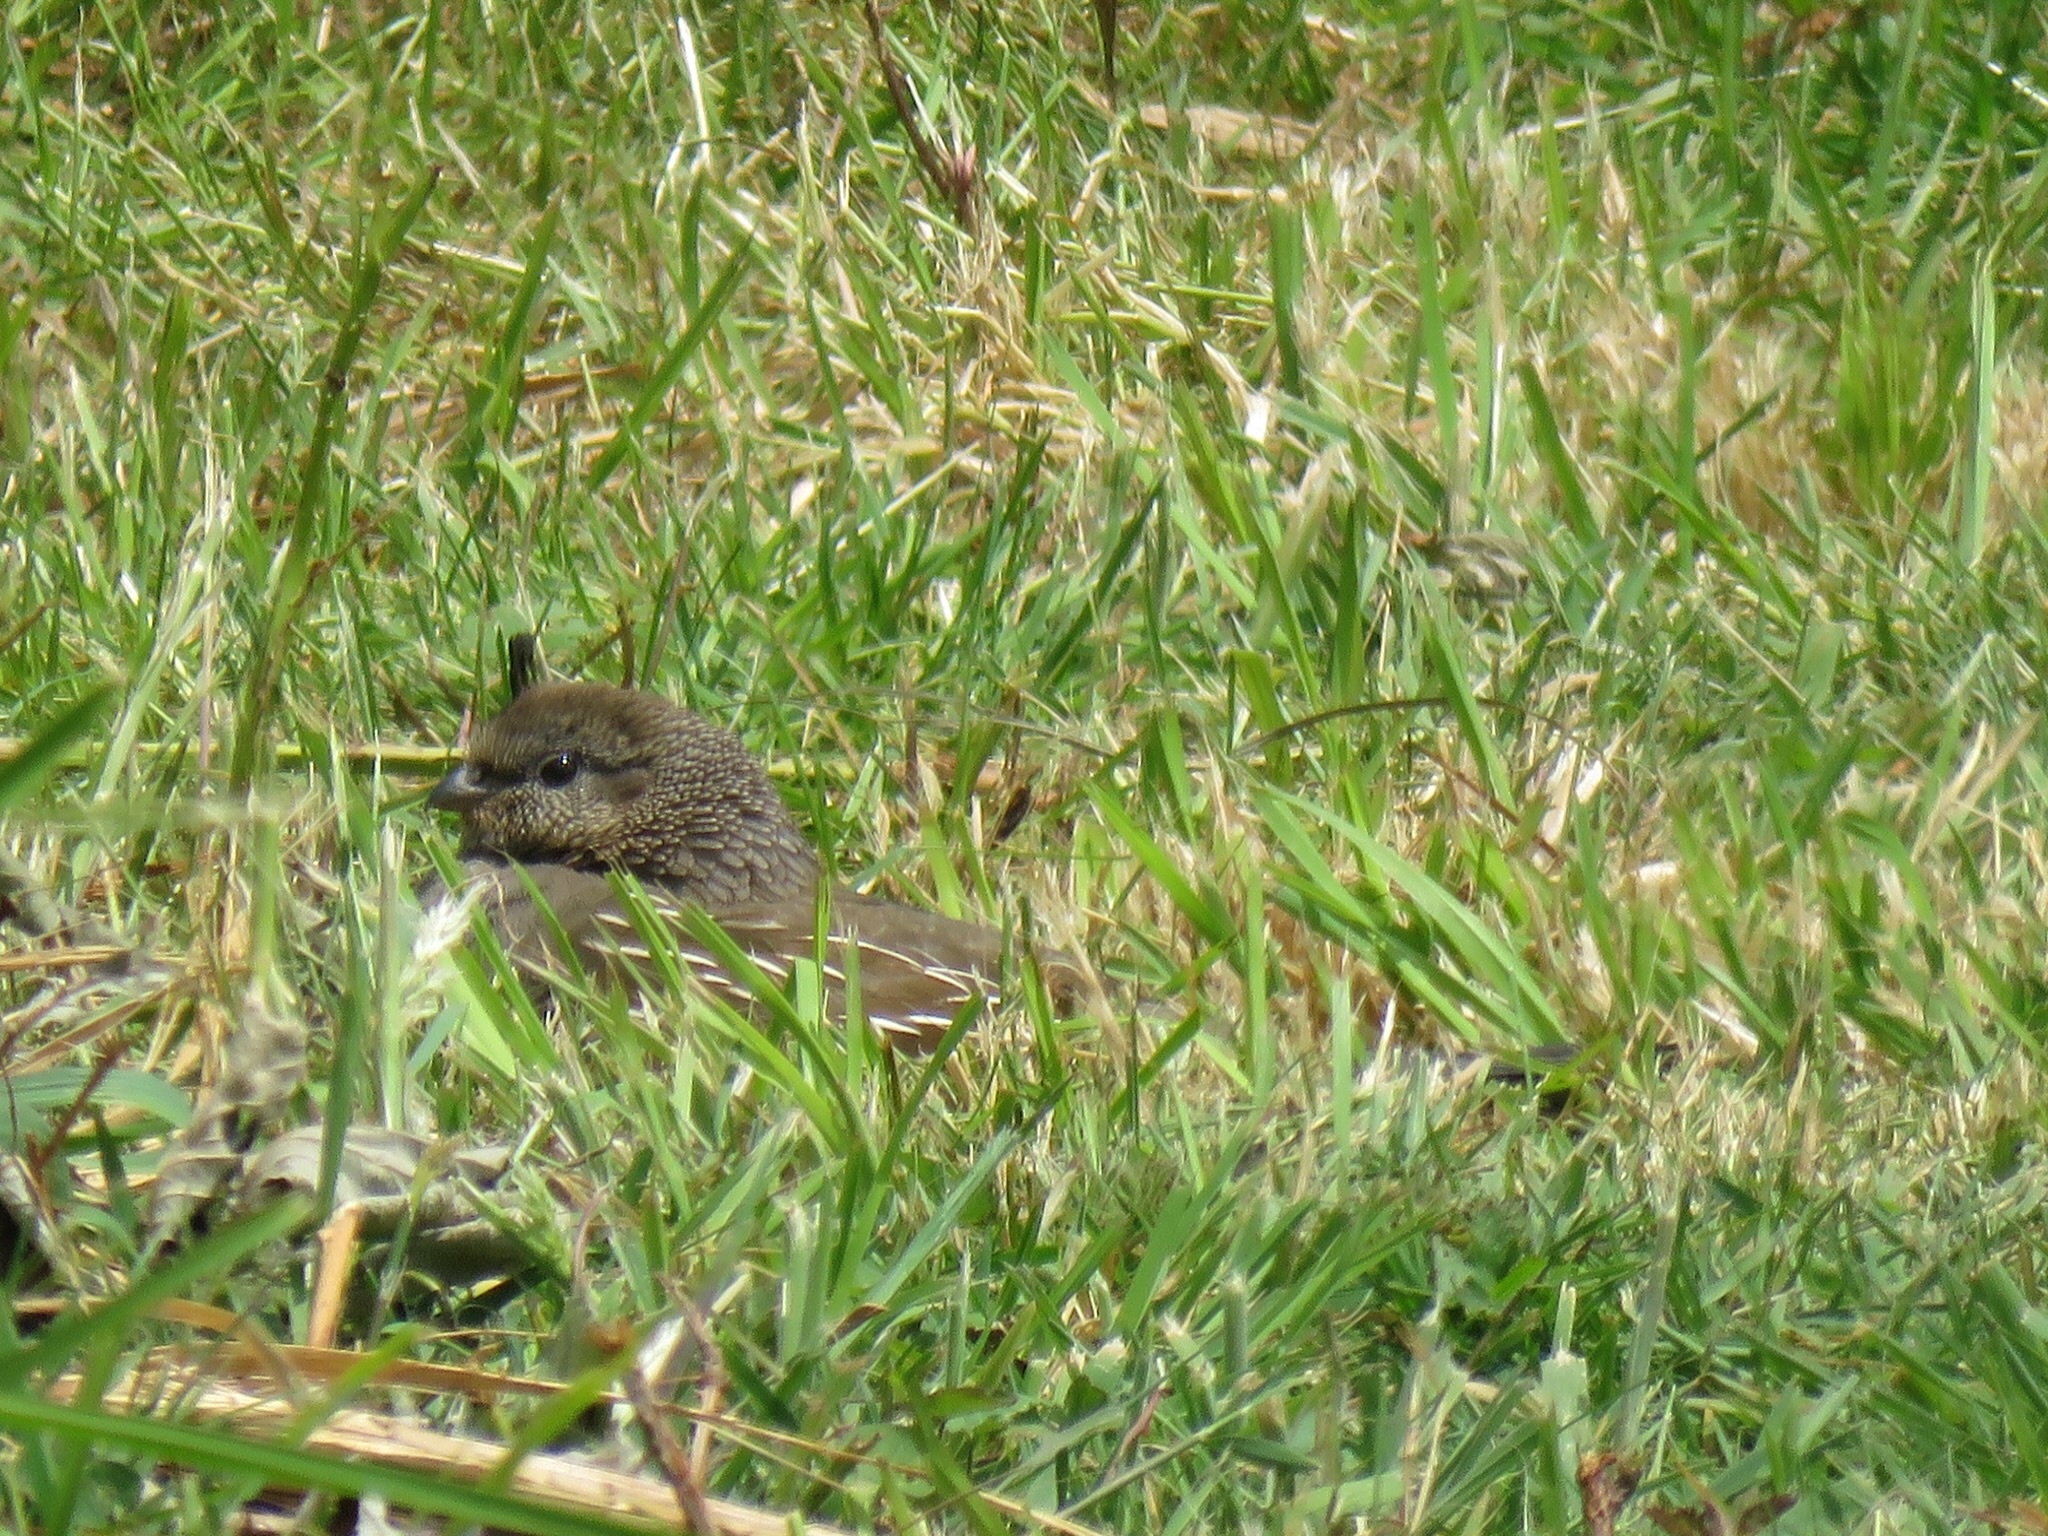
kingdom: Animalia
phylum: Chordata
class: Aves
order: Galliformes
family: Odontophoridae
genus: Callipepla
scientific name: Callipepla californica
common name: California quail
